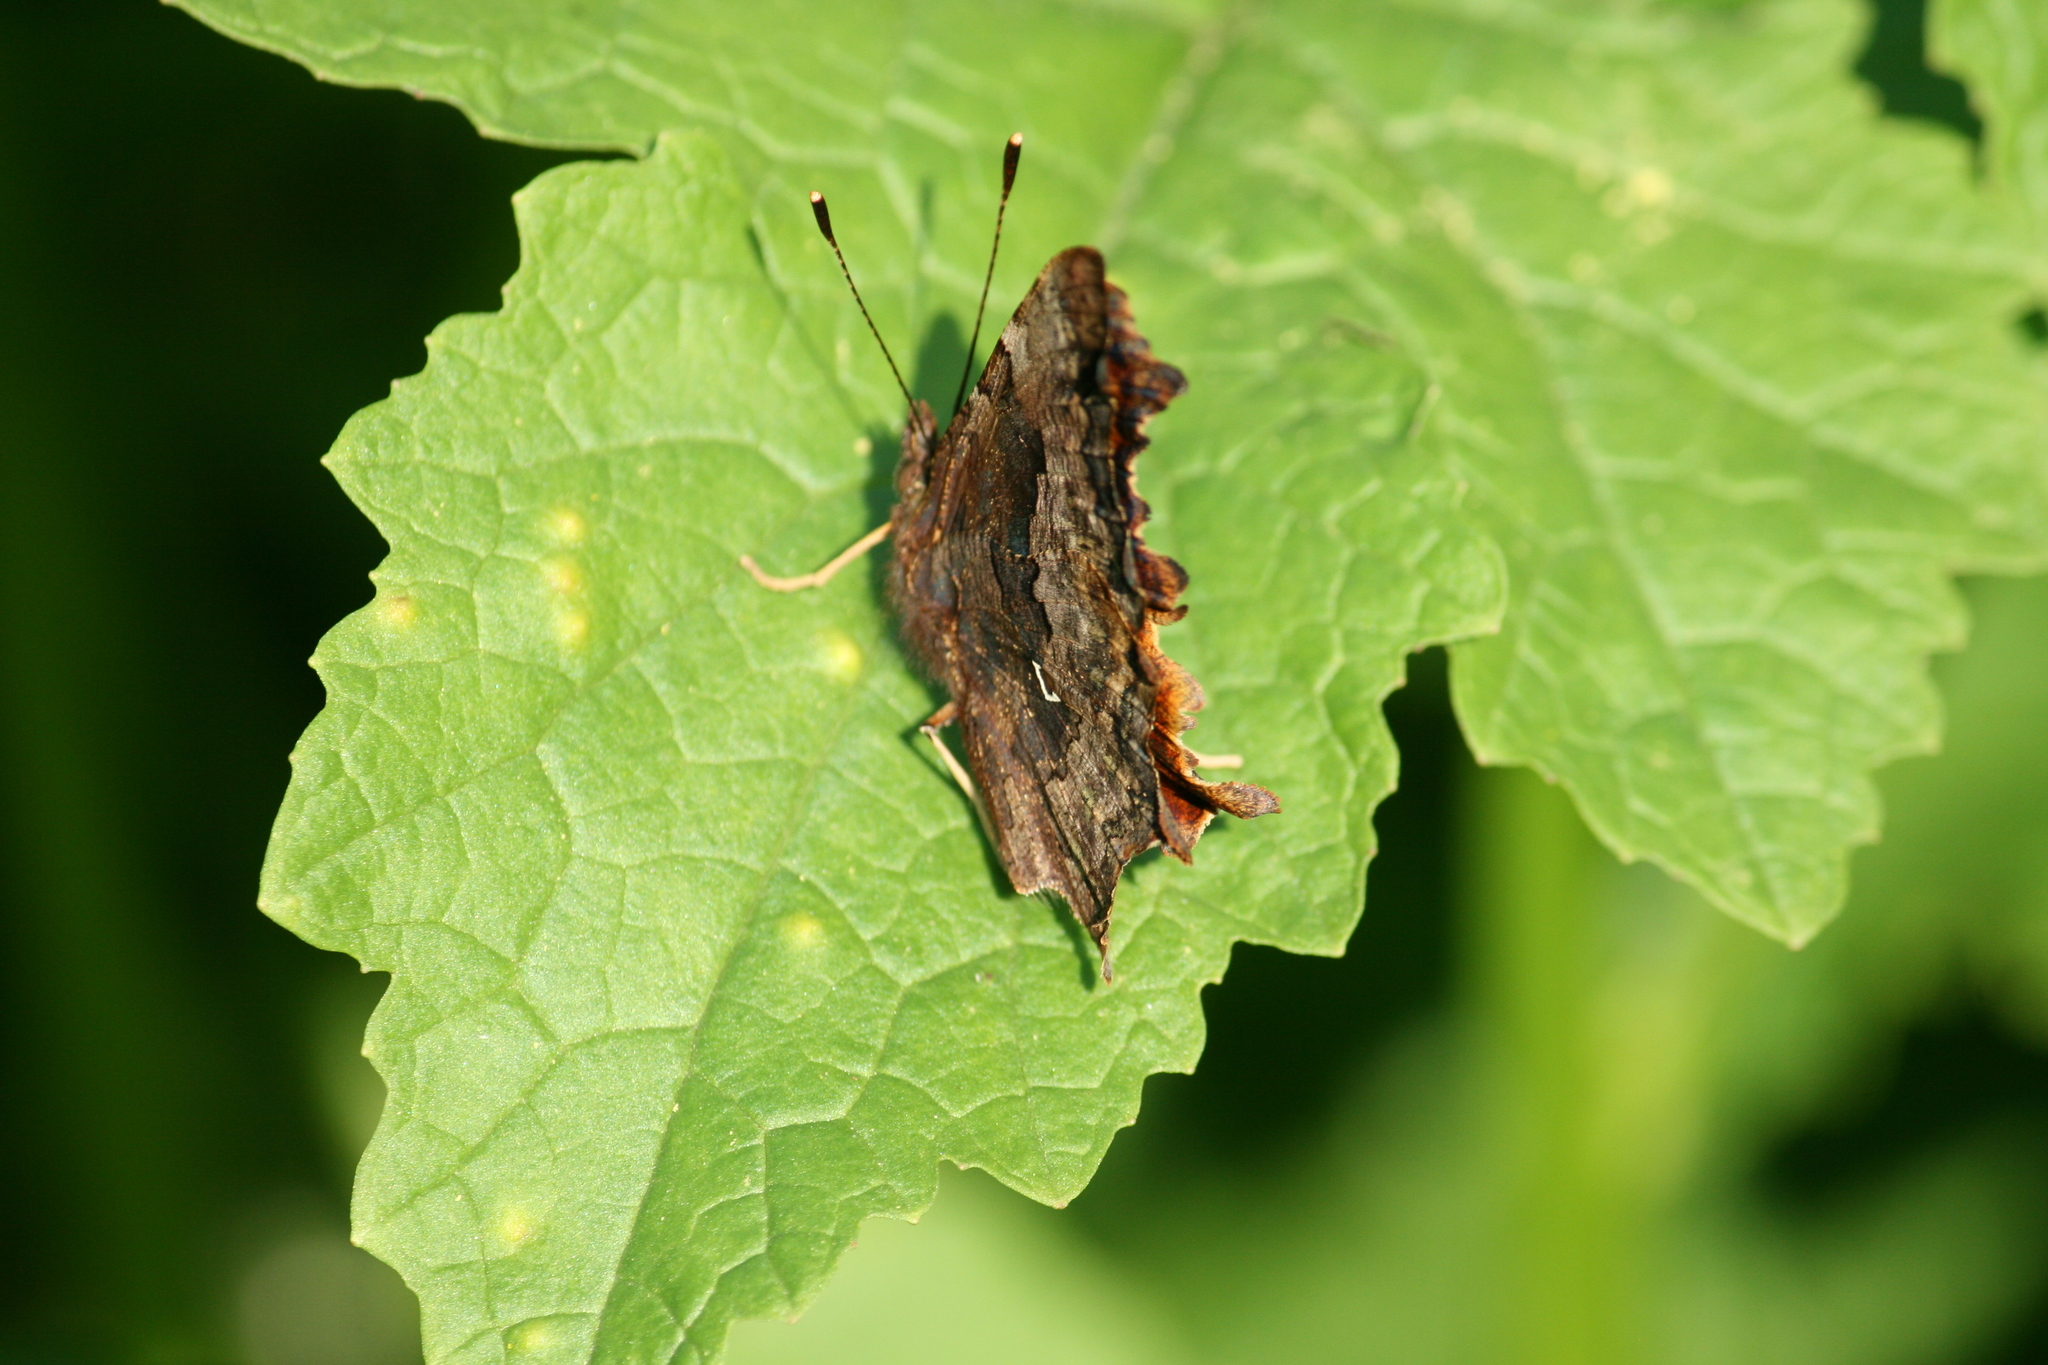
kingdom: Animalia
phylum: Arthropoda
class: Insecta
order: Lepidoptera
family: Nymphalidae
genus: Polygonia
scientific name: Polygonia c-album
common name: Comma
